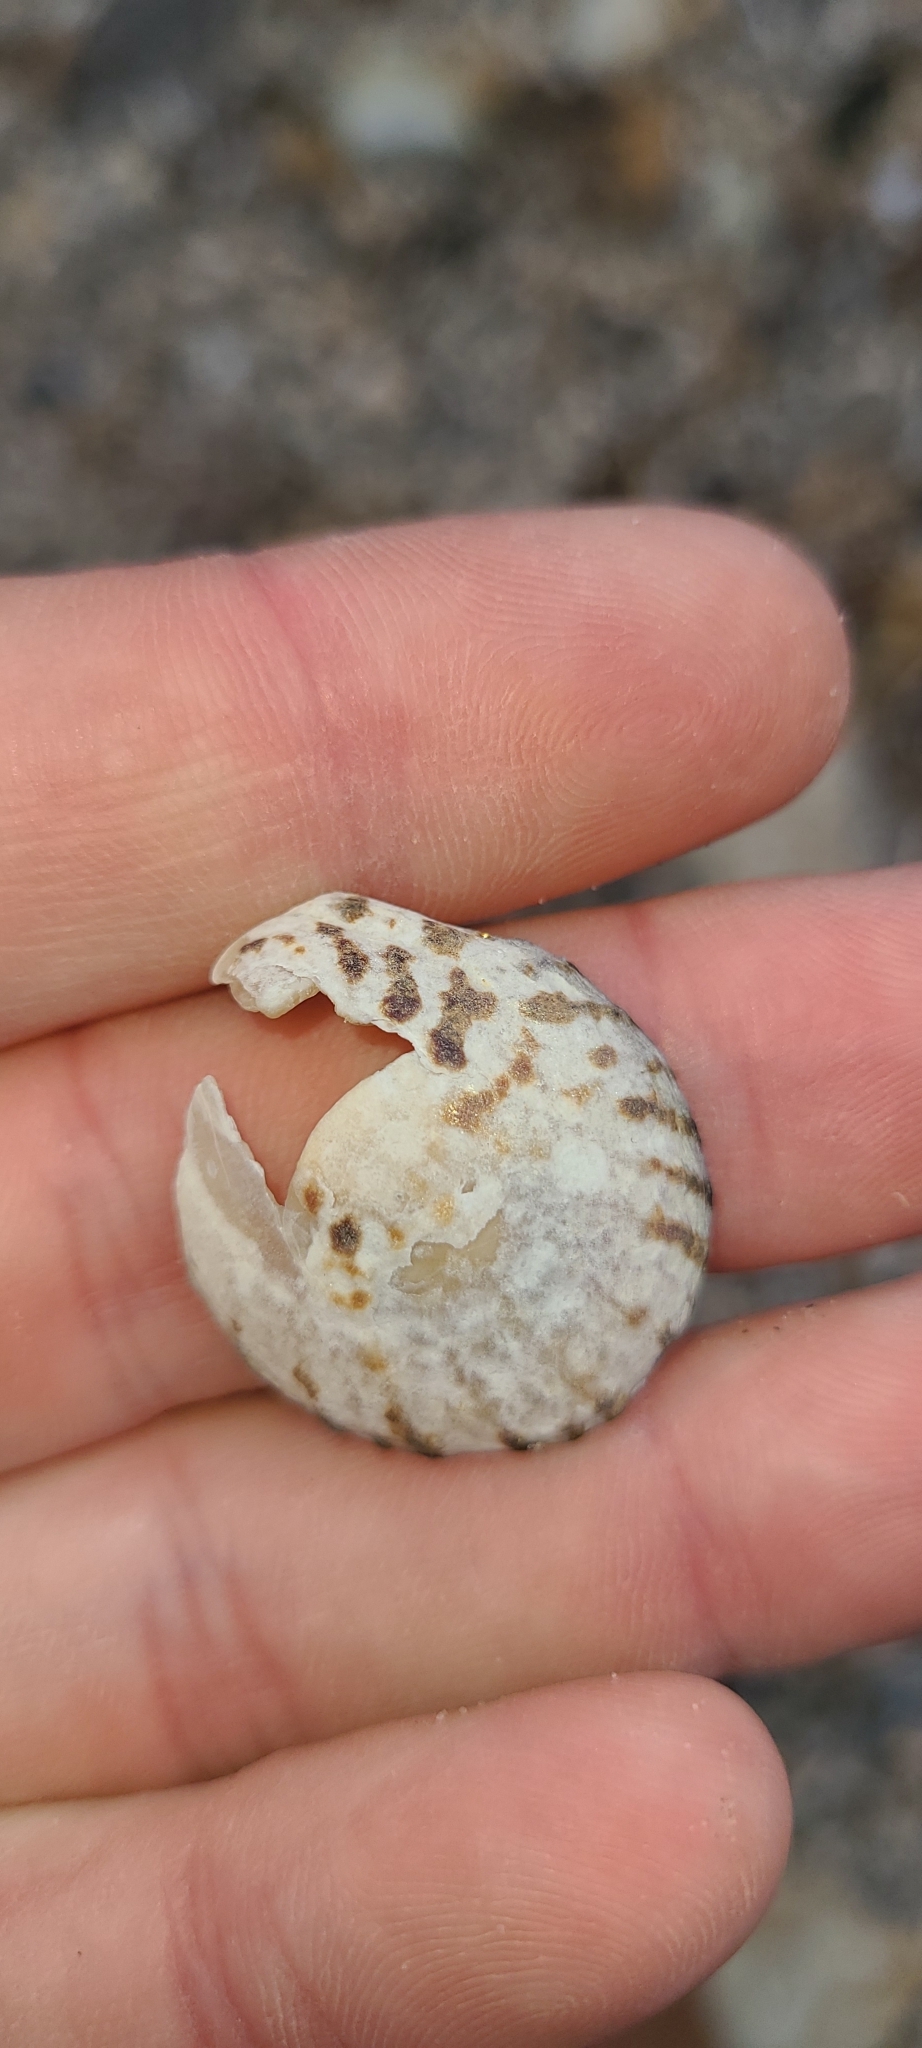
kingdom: Animalia
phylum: Mollusca
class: Gastropoda
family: Nacellidae
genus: Cellana
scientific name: Cellana radians
